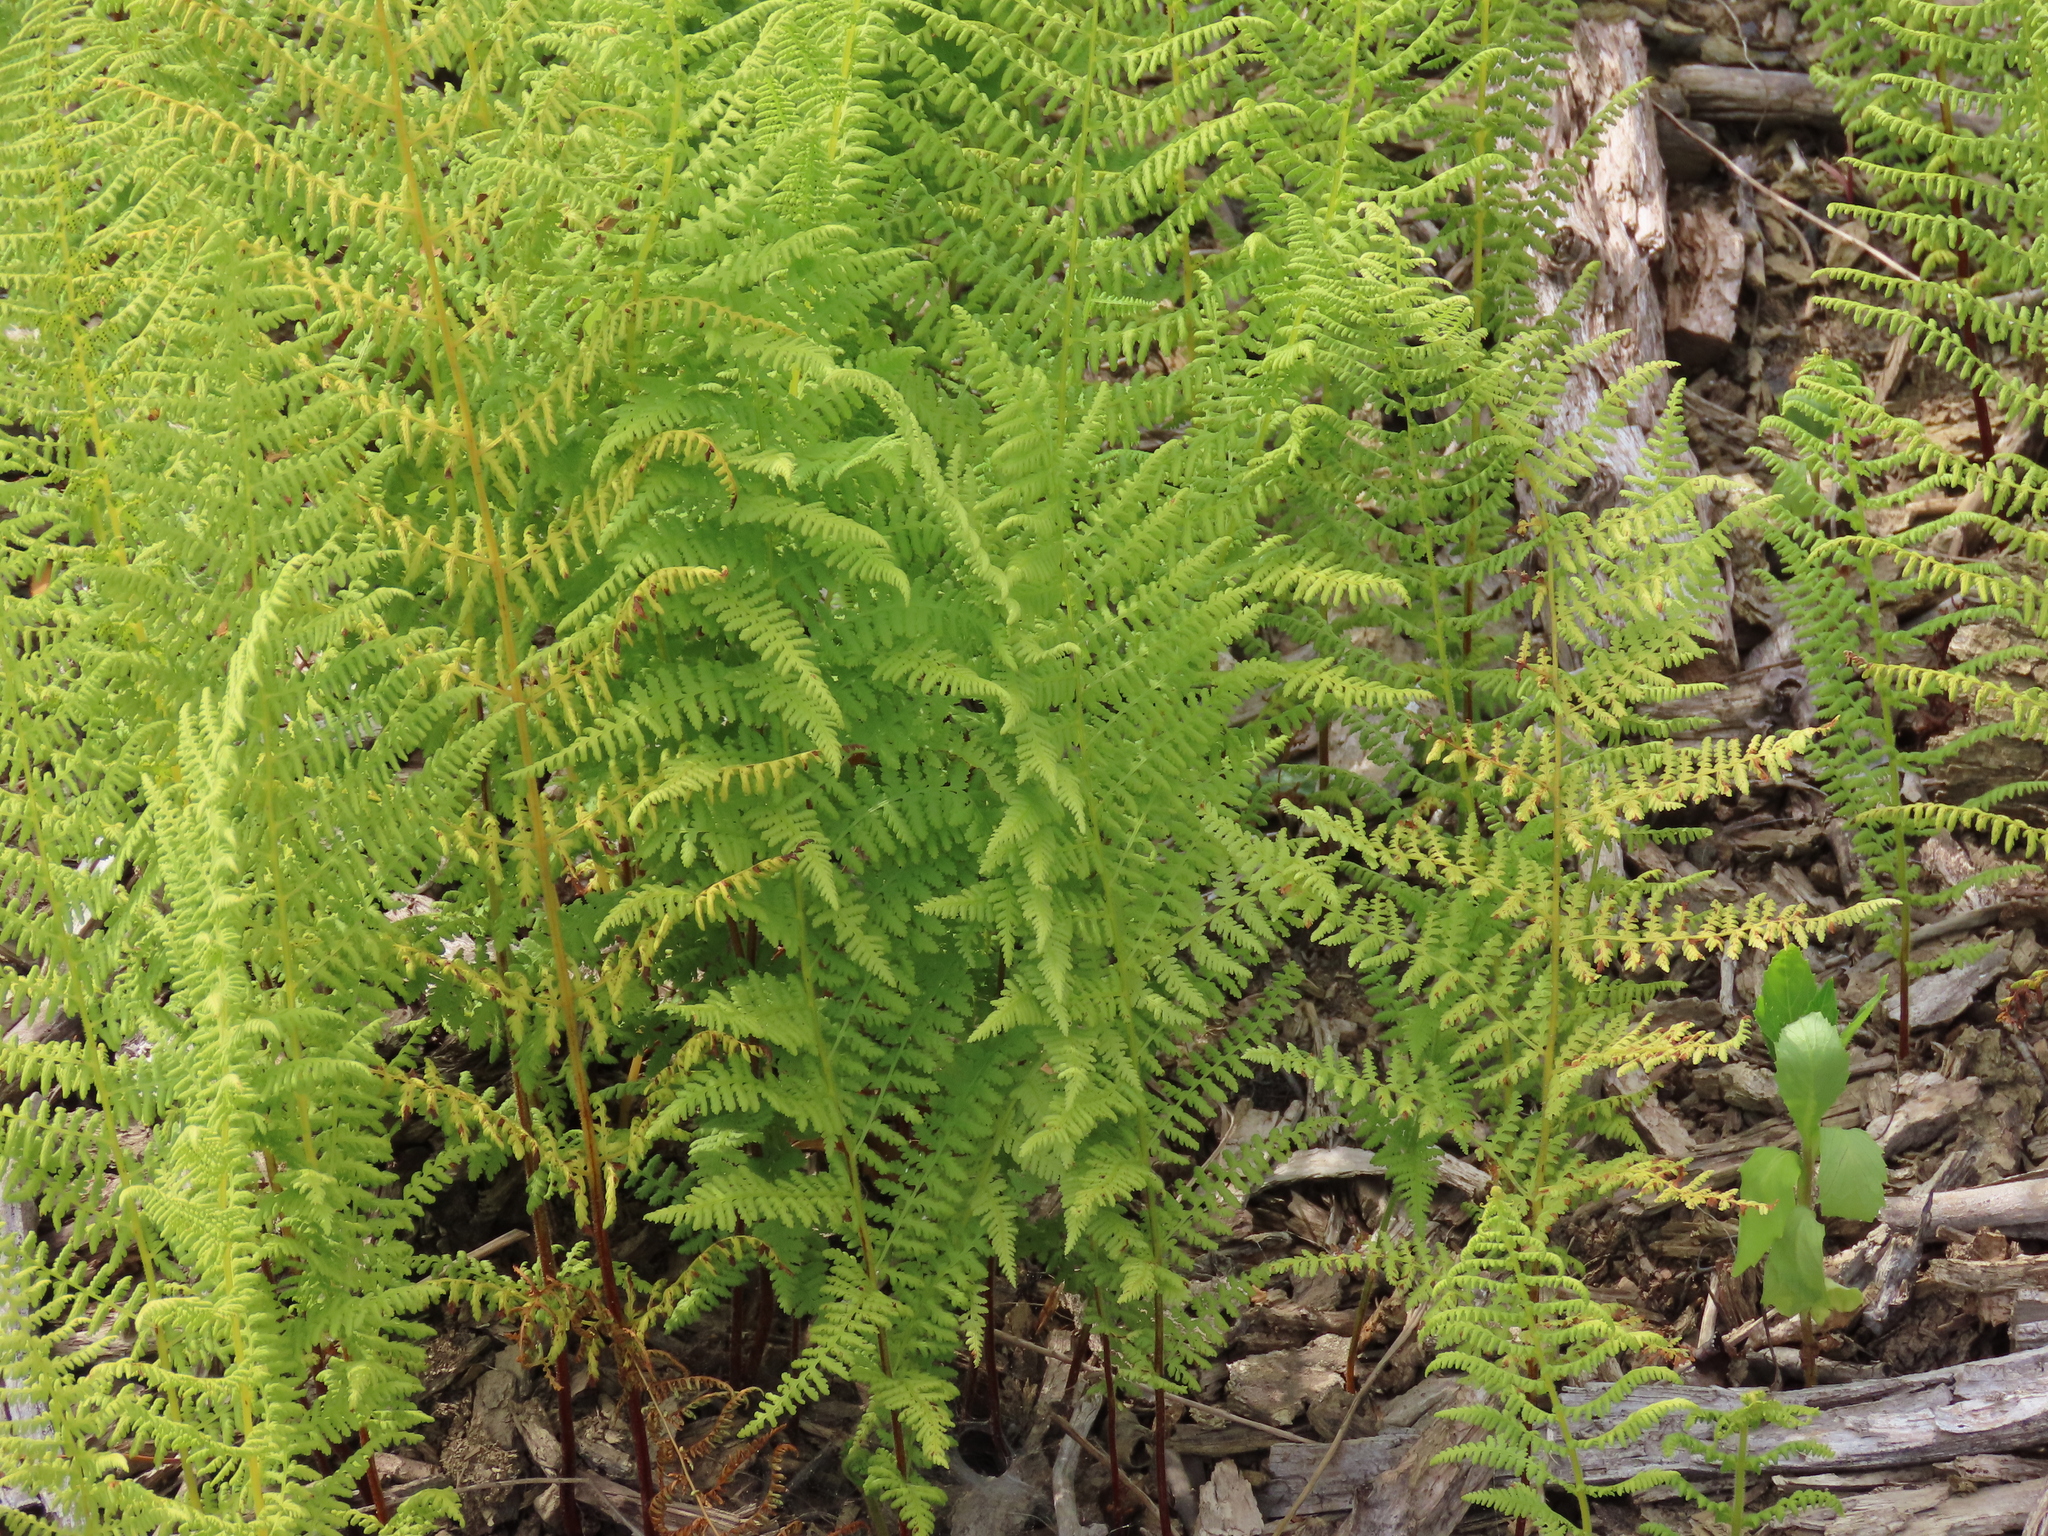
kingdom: Plantae
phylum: Tracheophyta
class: Polypodiopsida
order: Polypodiales
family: Dennstaedtiaceae
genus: Sitobolium
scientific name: Sitobolium punctilobum
